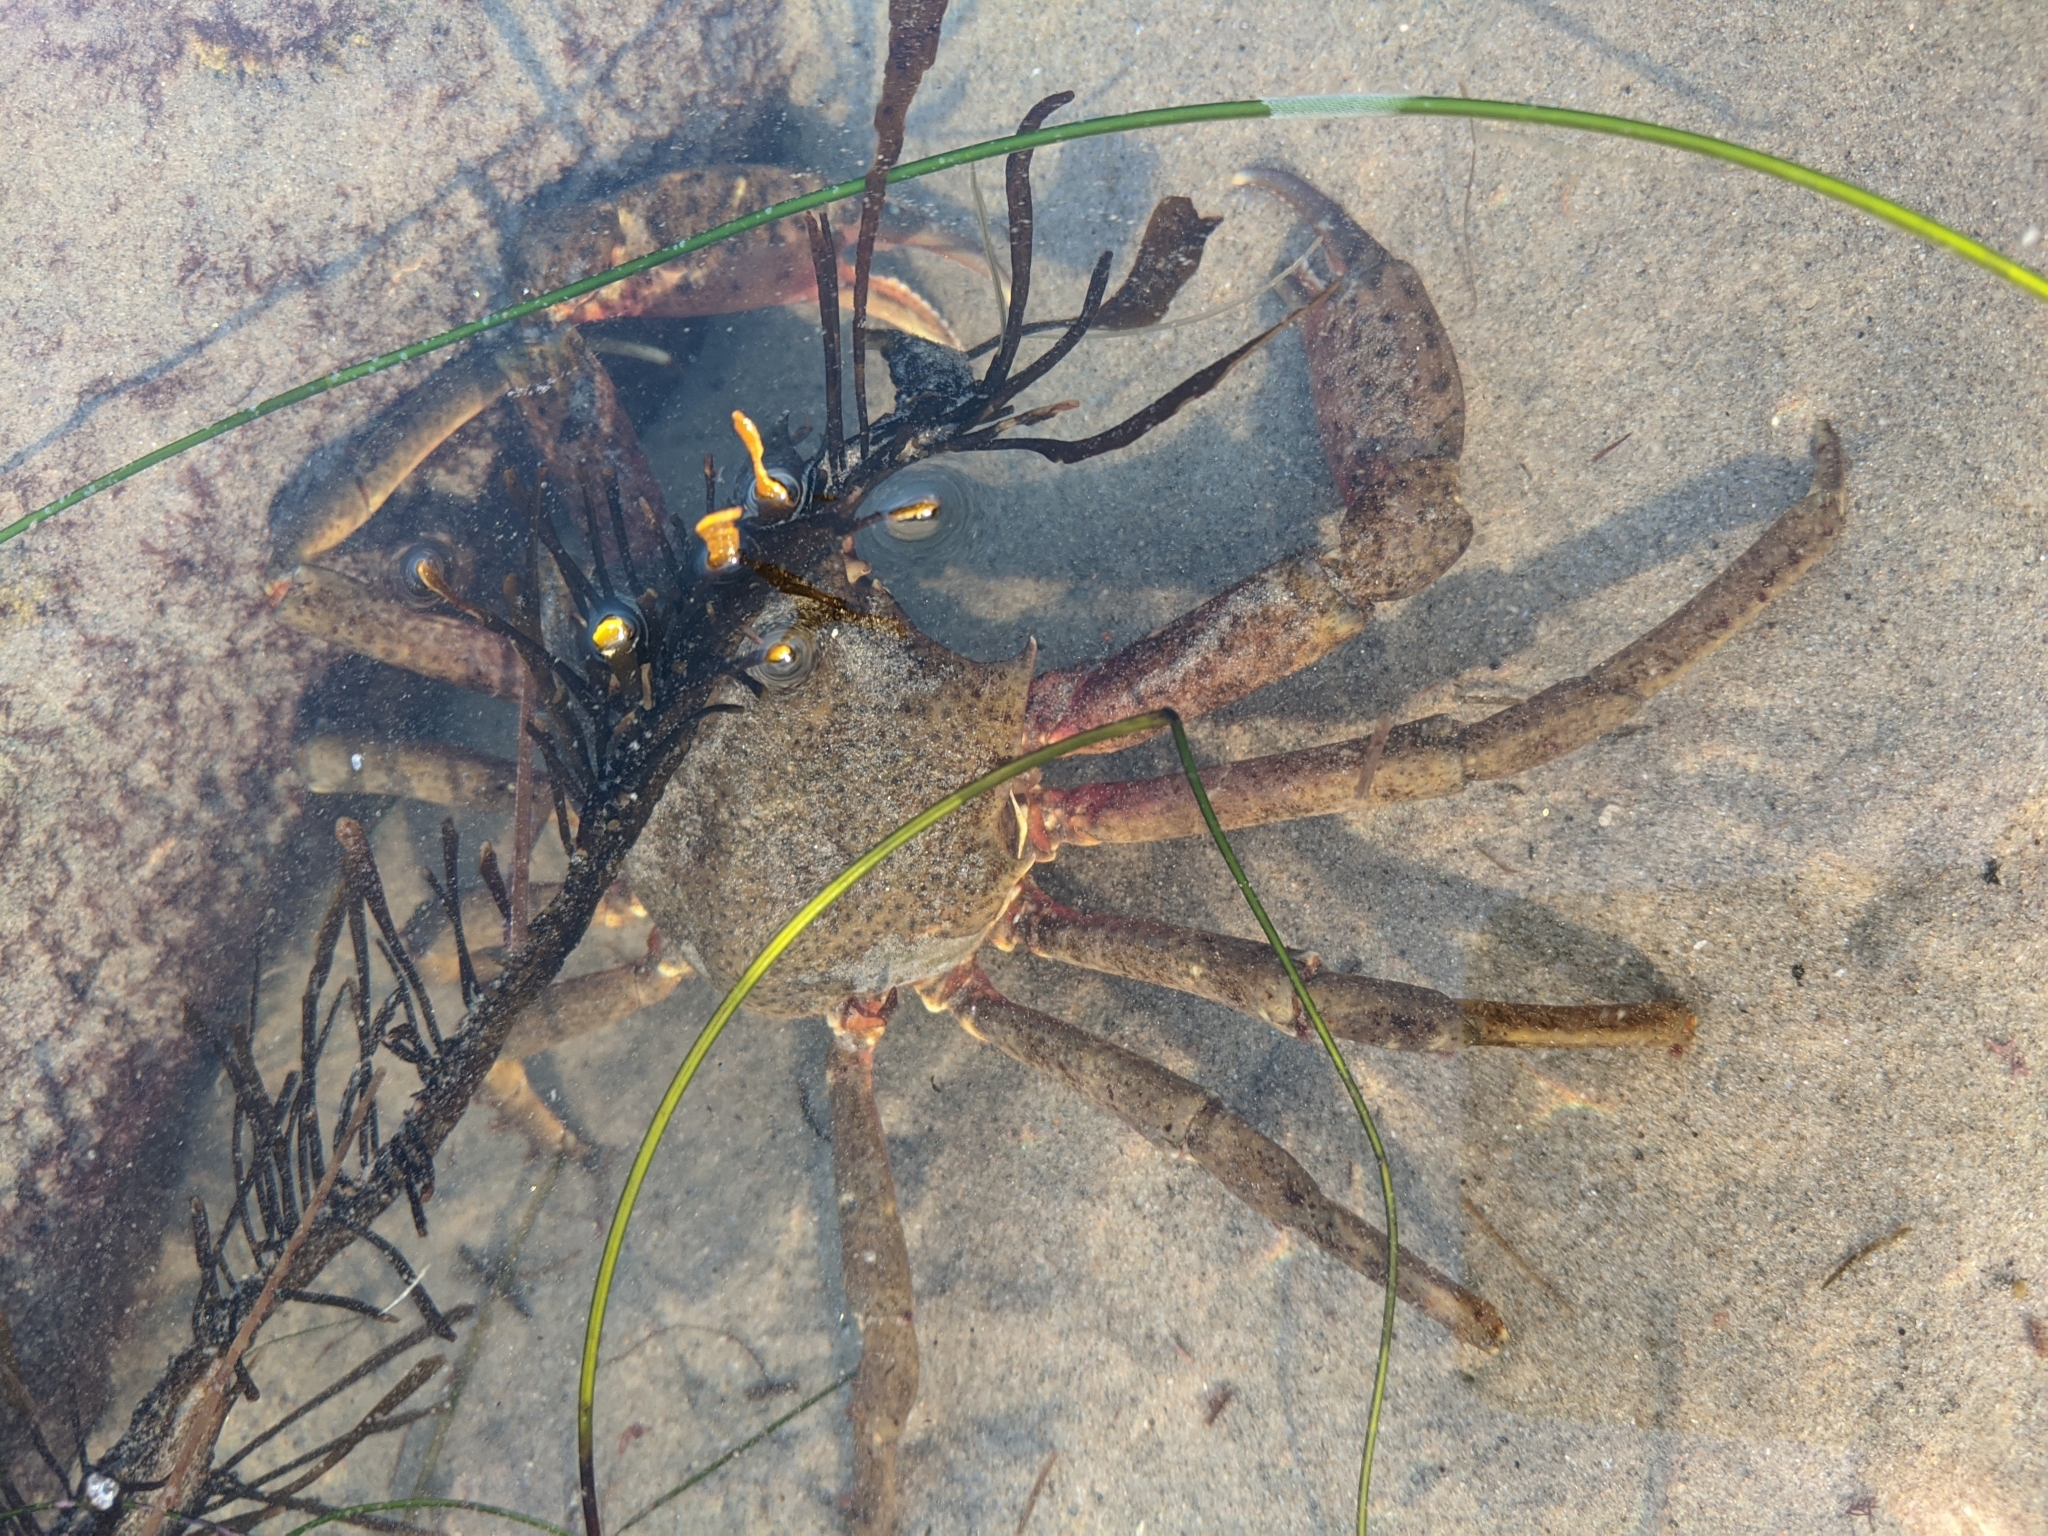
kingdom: Animalia
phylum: Arthropoda
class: Malacostraca
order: Decapoda
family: Epialtidae
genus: Pugettia
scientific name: Pugettia producta
